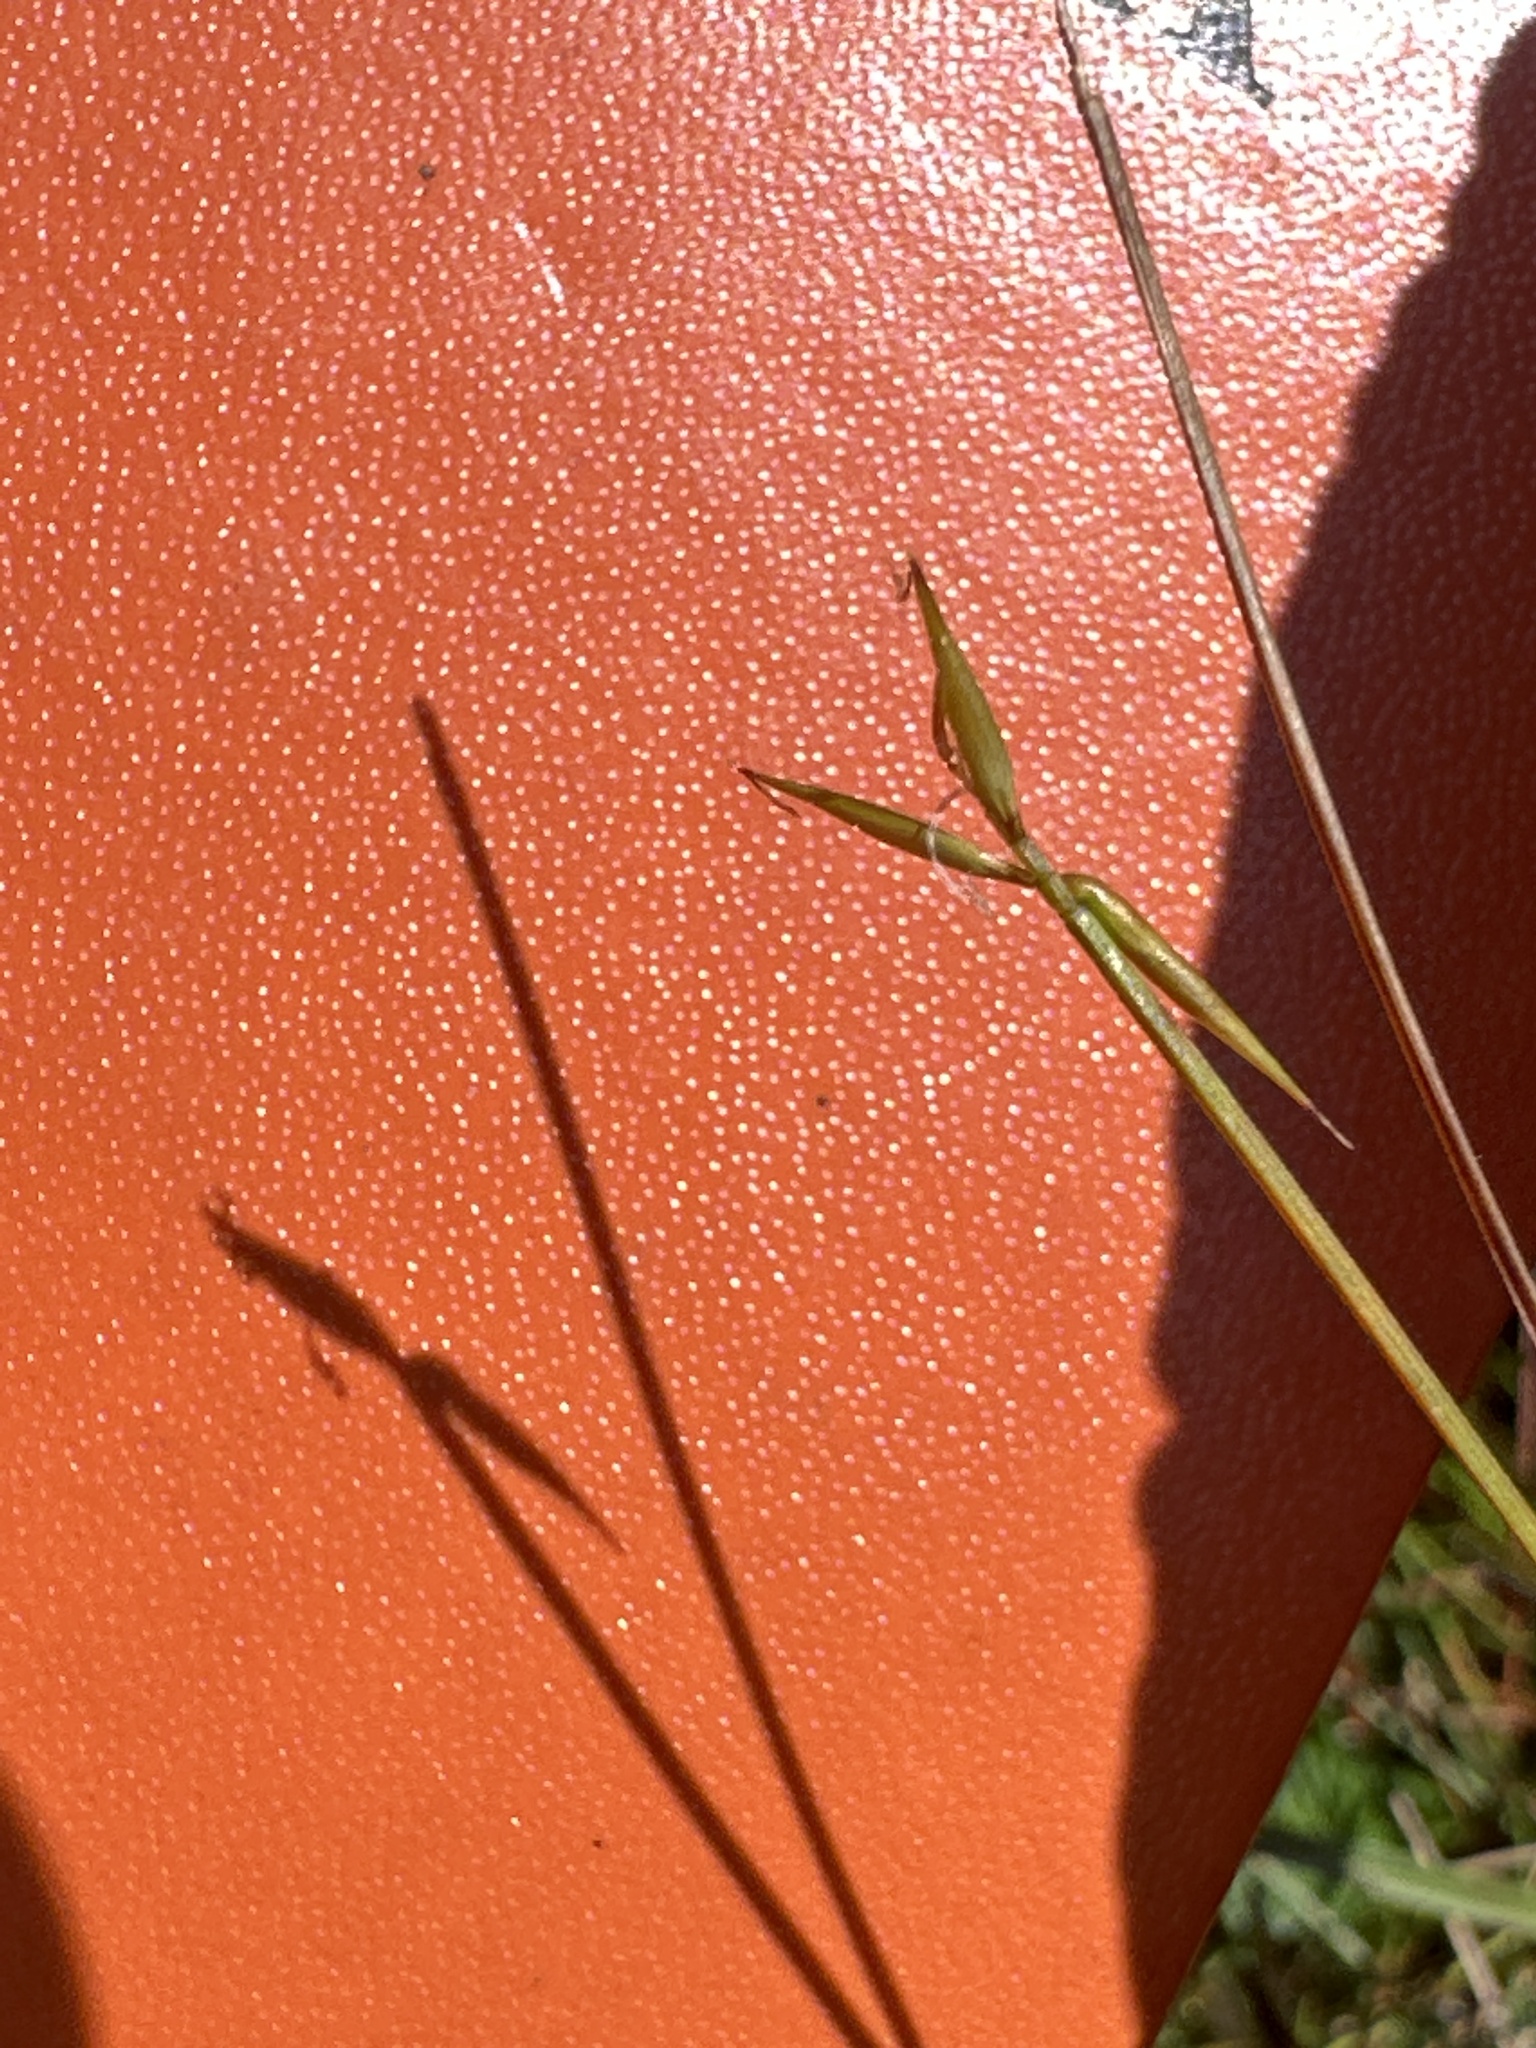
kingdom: Plantae
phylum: Tracheophyta
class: Liliopsida
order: Poales
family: Cyperaceae
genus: Carex
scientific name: Carex pauciflora
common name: Few-flowered sedge
